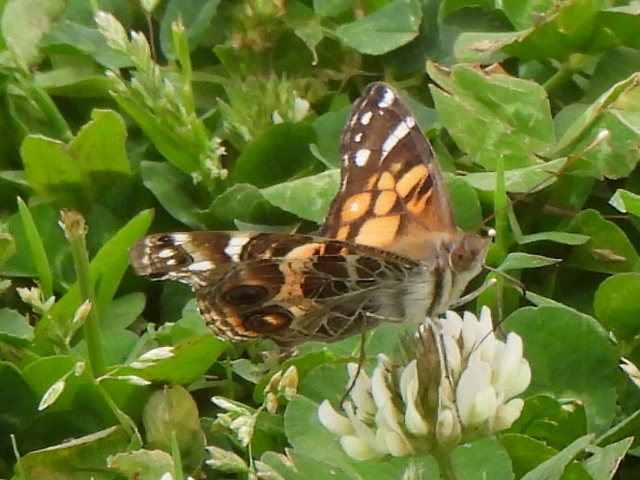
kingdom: Animalia
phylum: Arthropoda
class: Insecta
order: Lepidoptera
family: Nymphalidae
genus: Vanessa
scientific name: Vanessa virginiensis
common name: American lady
